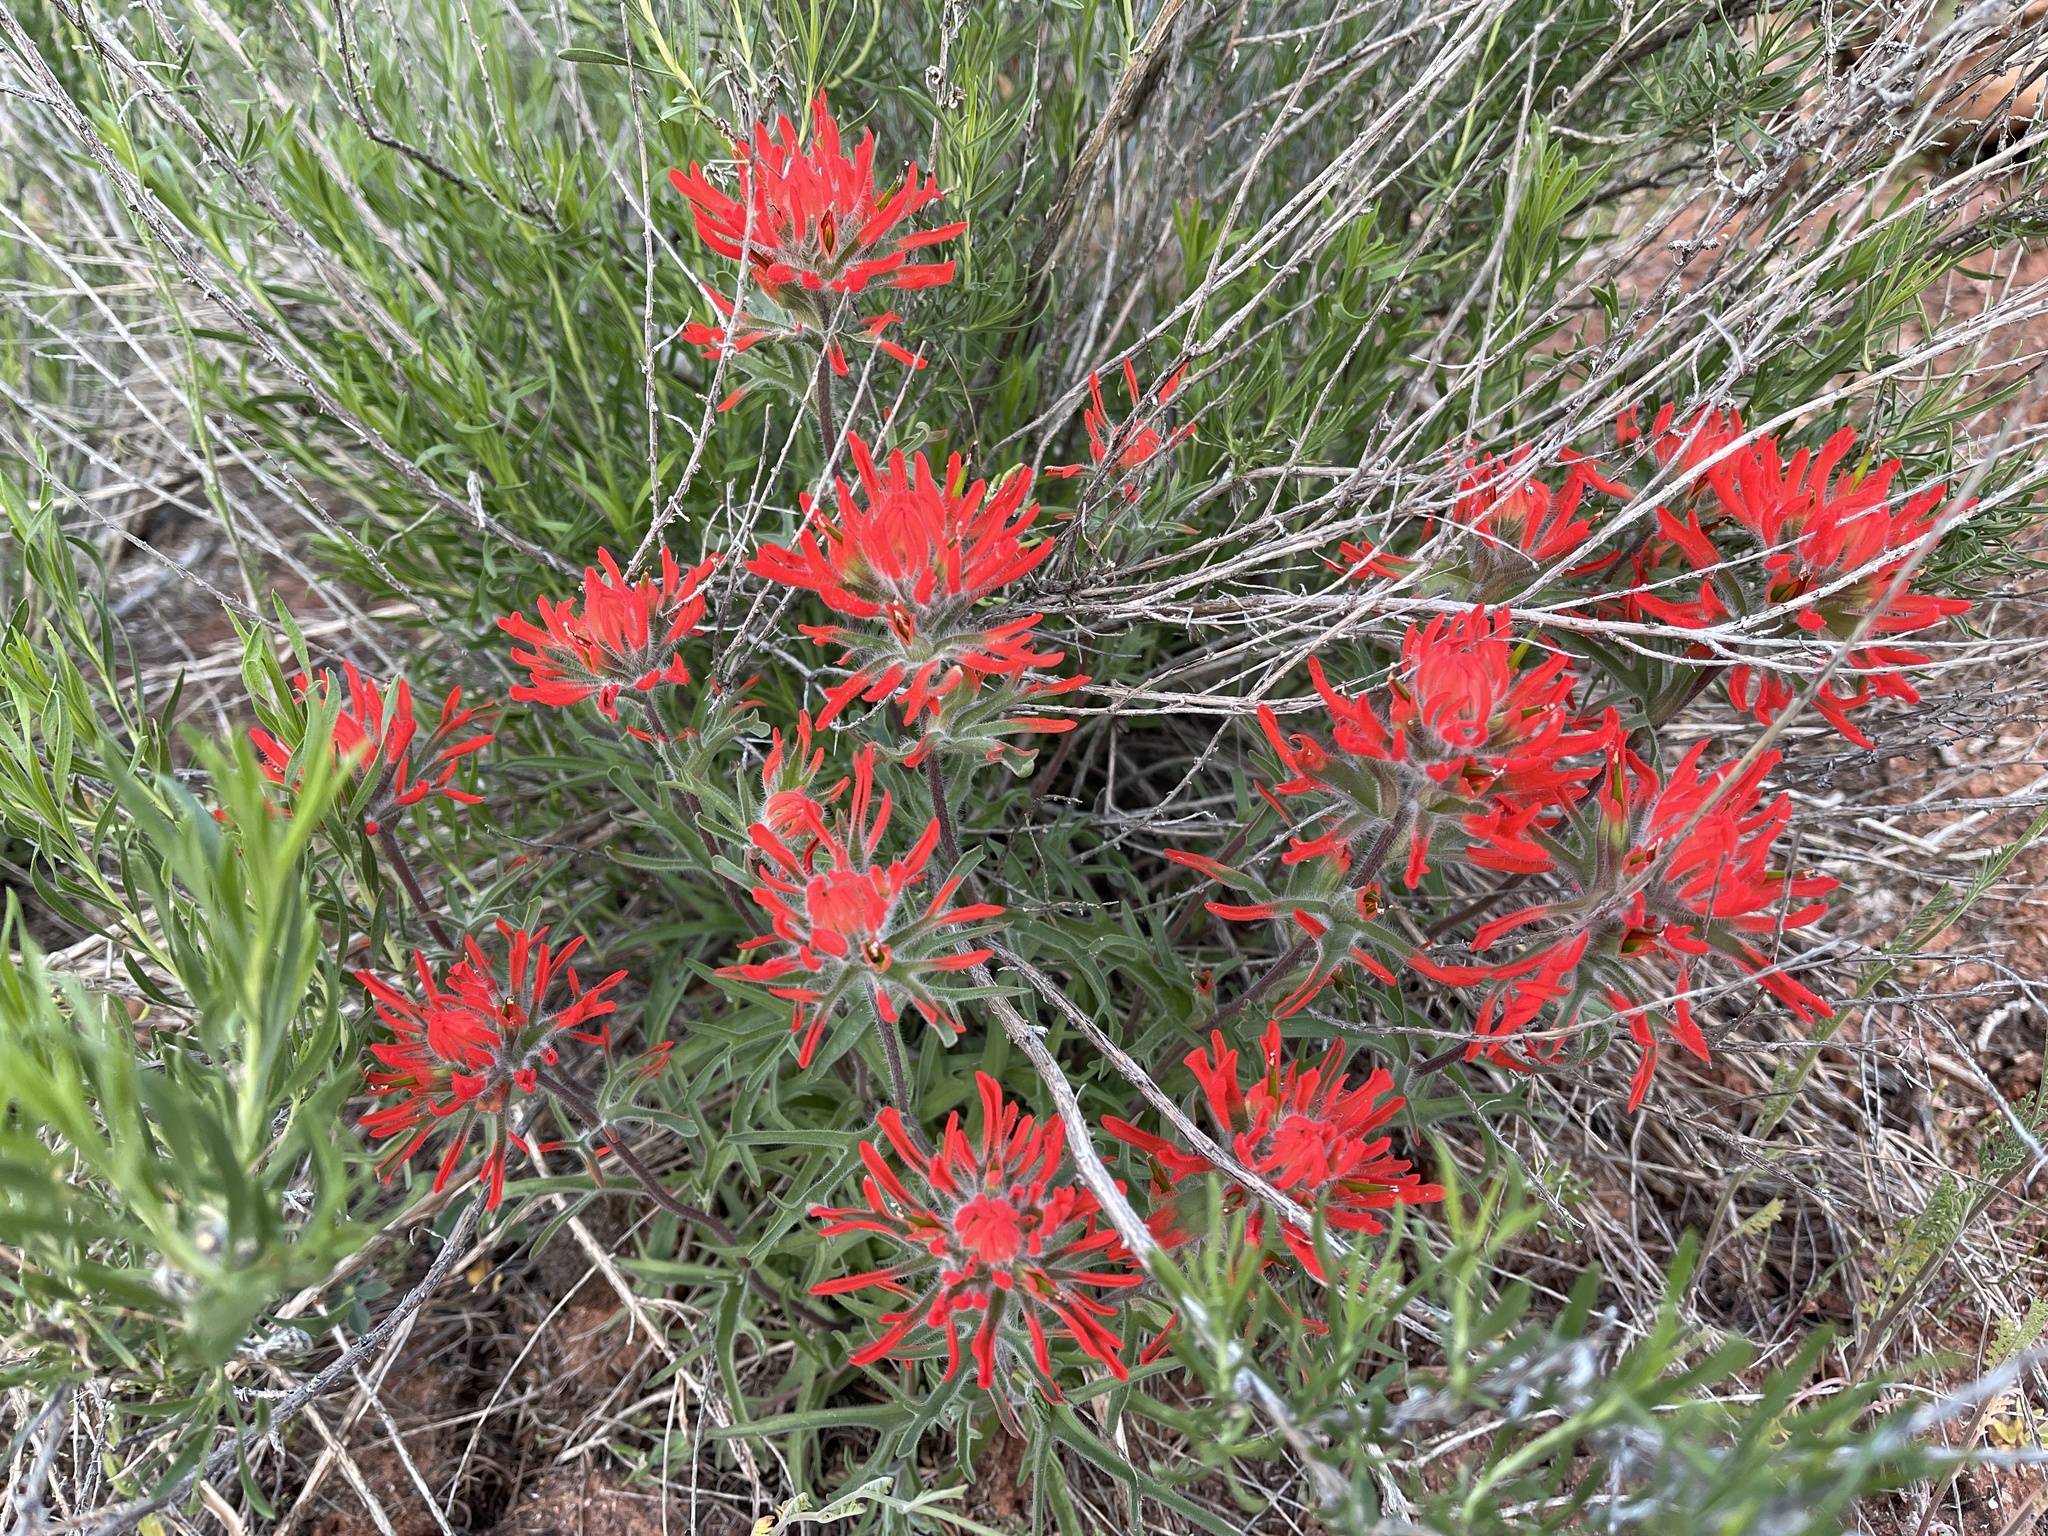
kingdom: Plantae
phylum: Tracheophyta
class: Magnoliopsida
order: Lamiales
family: Orobanchaceae
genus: Castilleja
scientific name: Castilleja chromosa
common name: Desert paintbrush
